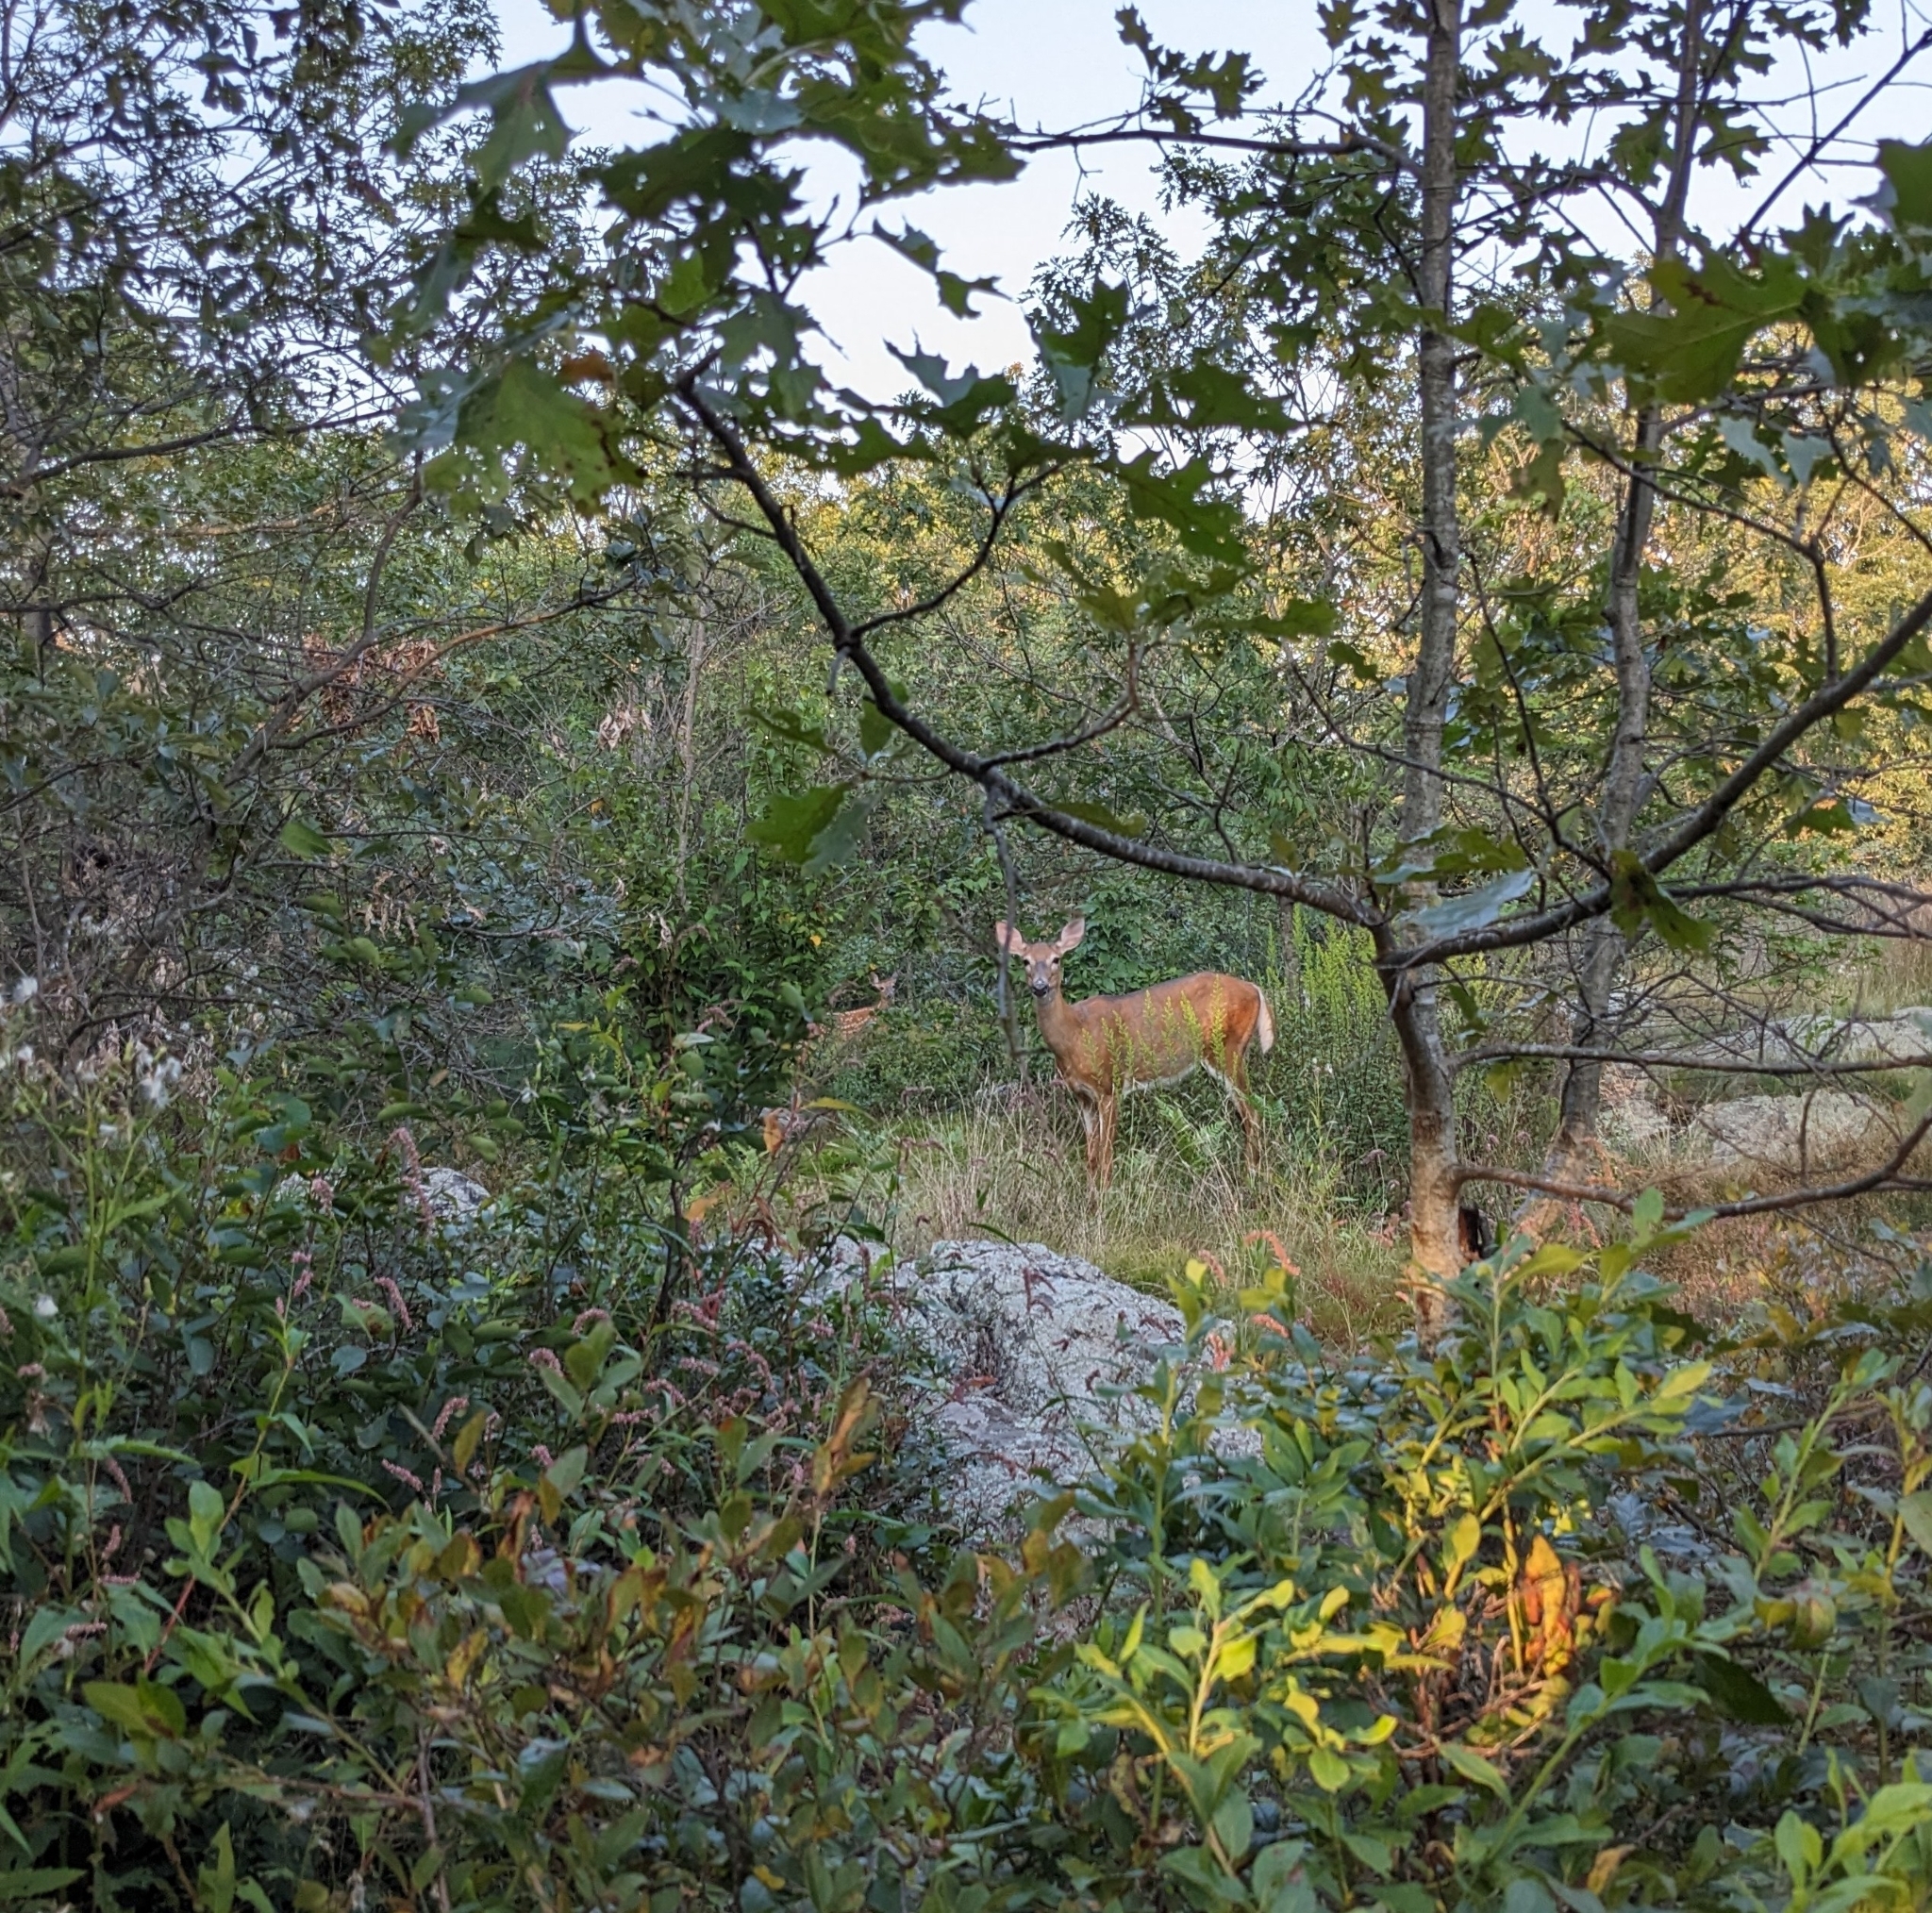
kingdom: Animalia
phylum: Chordata
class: Mammalia
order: Artiodactyla
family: Cervidae
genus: Odocoileus
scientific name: Odocoileus virginianus
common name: White-tailed deer
